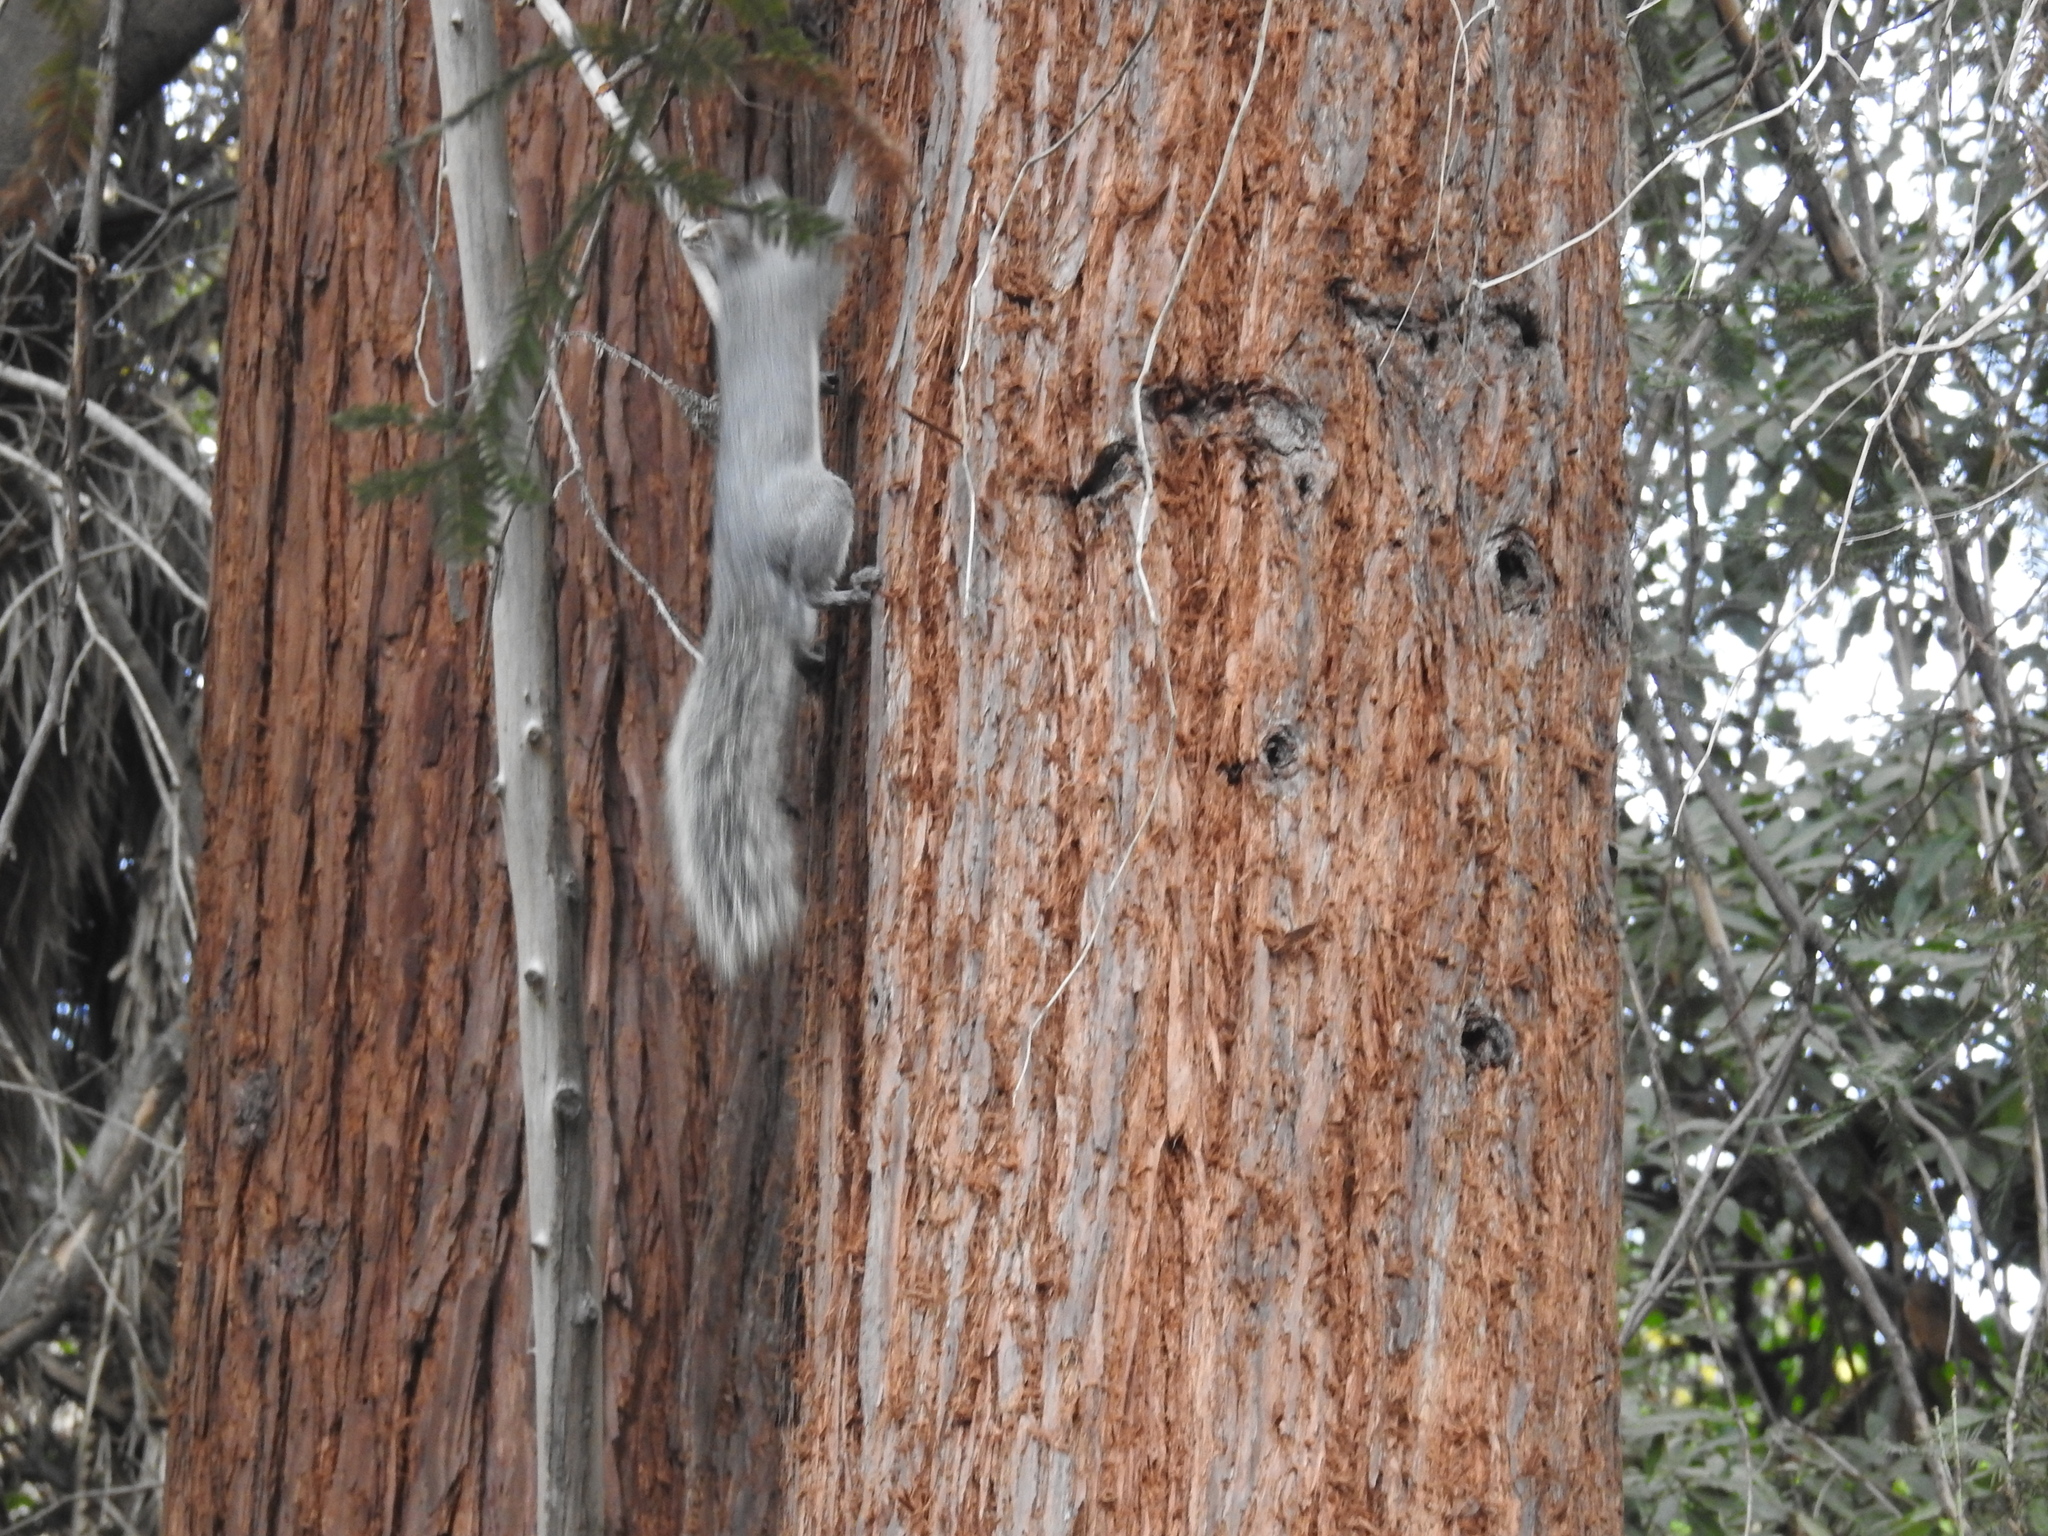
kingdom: Animalia
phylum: Chordata
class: Mammalia
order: Rodentia
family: Sciuridae
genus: Sciurus
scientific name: Sciurus griseus
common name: Western gray squirrel
